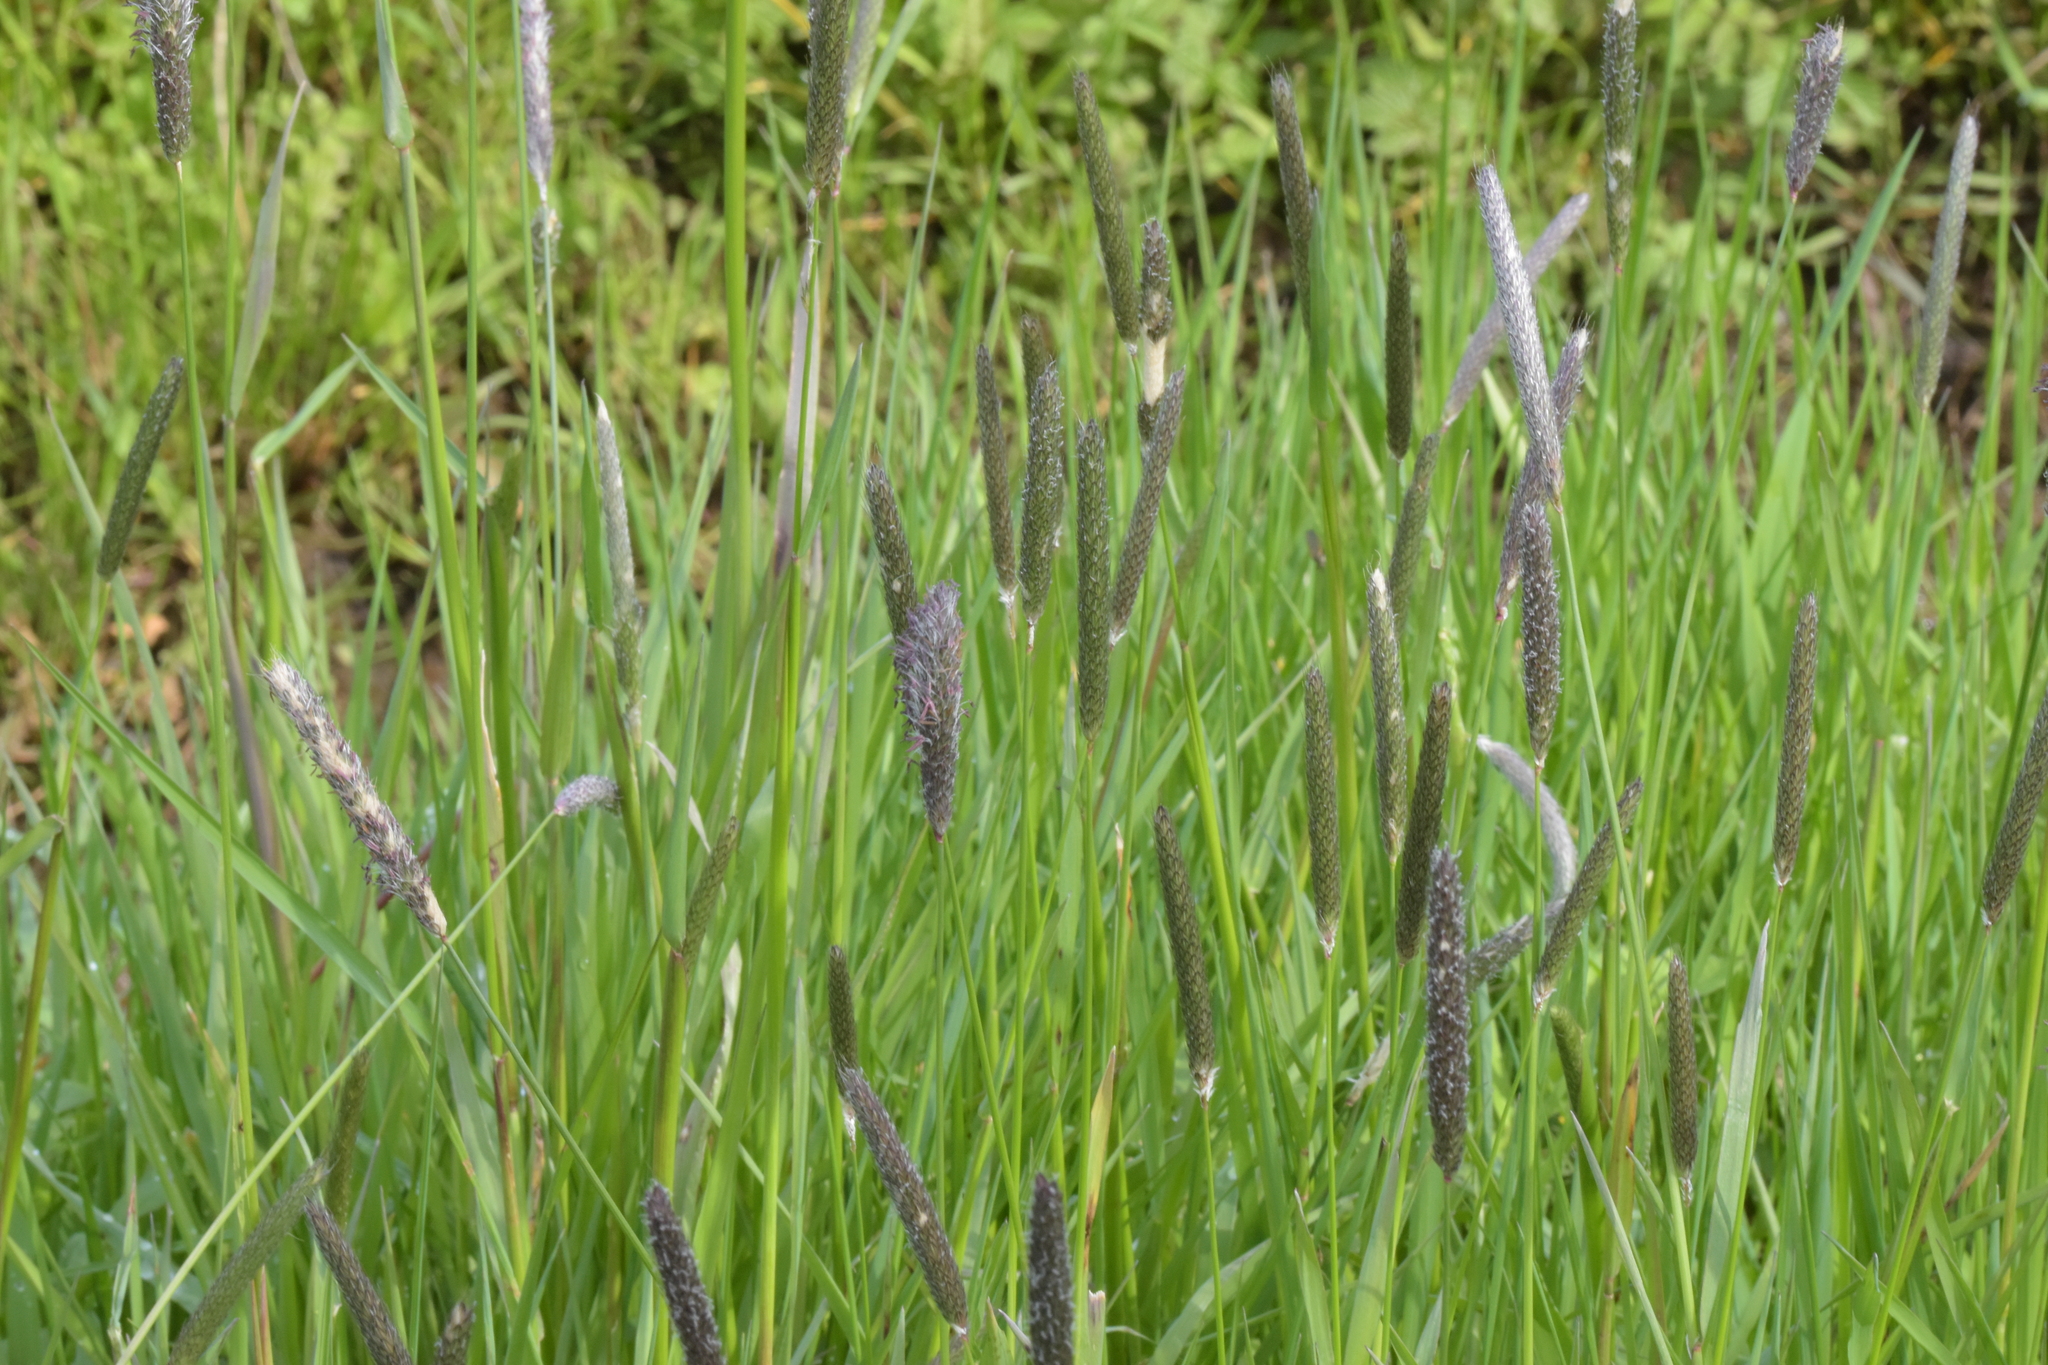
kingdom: Plantae
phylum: Tracheophyta
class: Liliopsida
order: Poales
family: Poaceae
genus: Alopecurus
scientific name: Alopecurus pratensis
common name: Meadow foxtail
